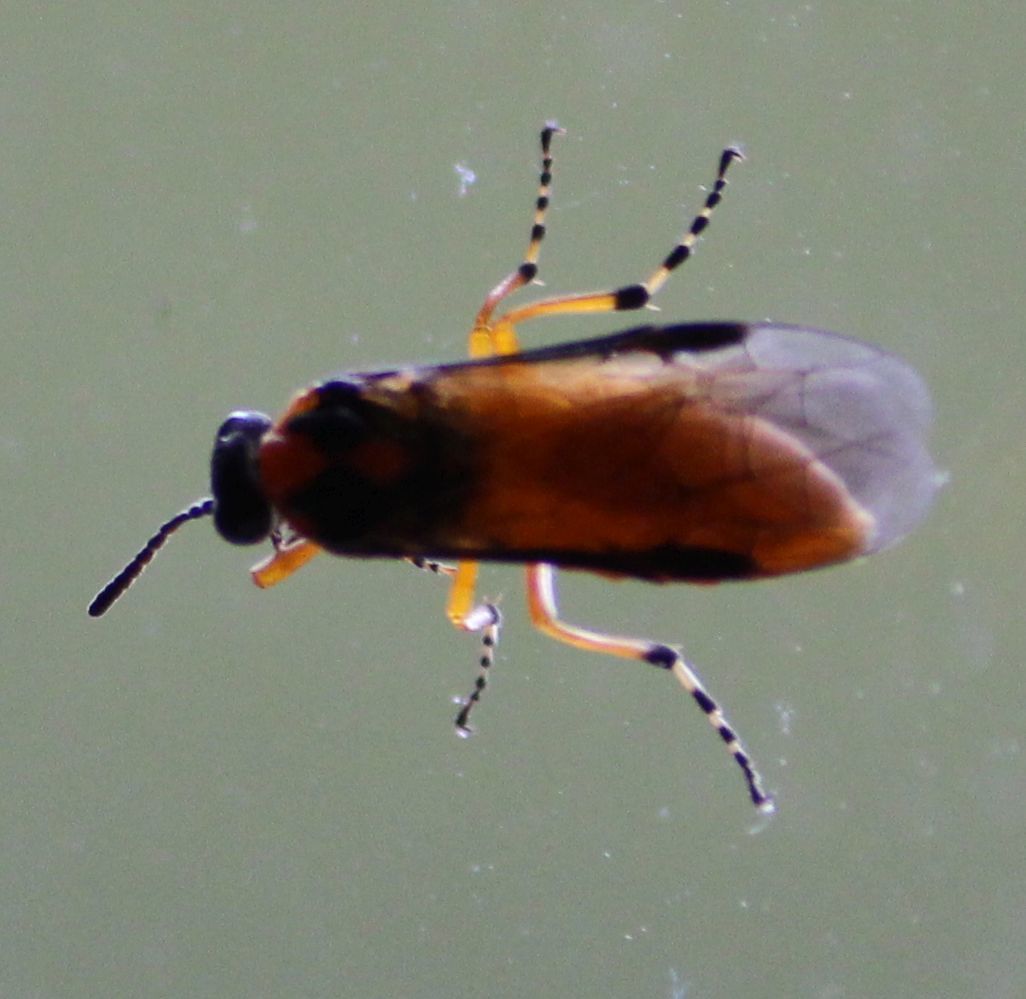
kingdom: Animalia
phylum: Arthropoda
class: Insecta
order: Hymenoptera
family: Tenthredinidae
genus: Athalia
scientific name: Athalia rosae
